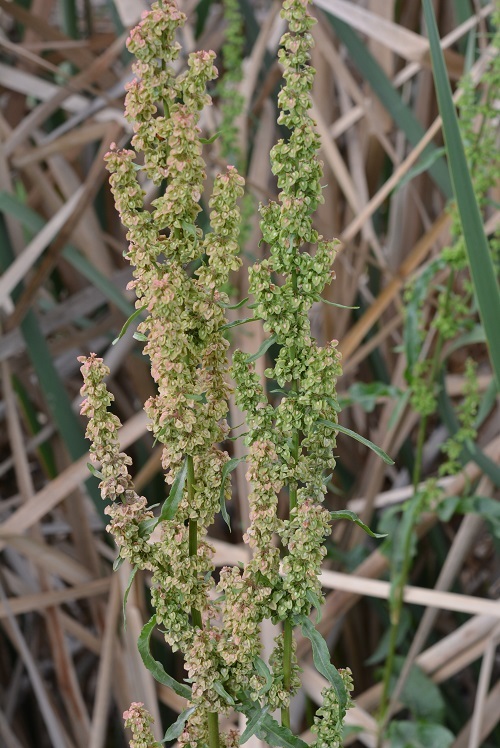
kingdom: Plantae
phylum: Tracheophyta
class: Magnoliopsida
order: Caryophyllales
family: Polygonaceae
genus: Rumex
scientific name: Rumex crispus
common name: Curled dock
